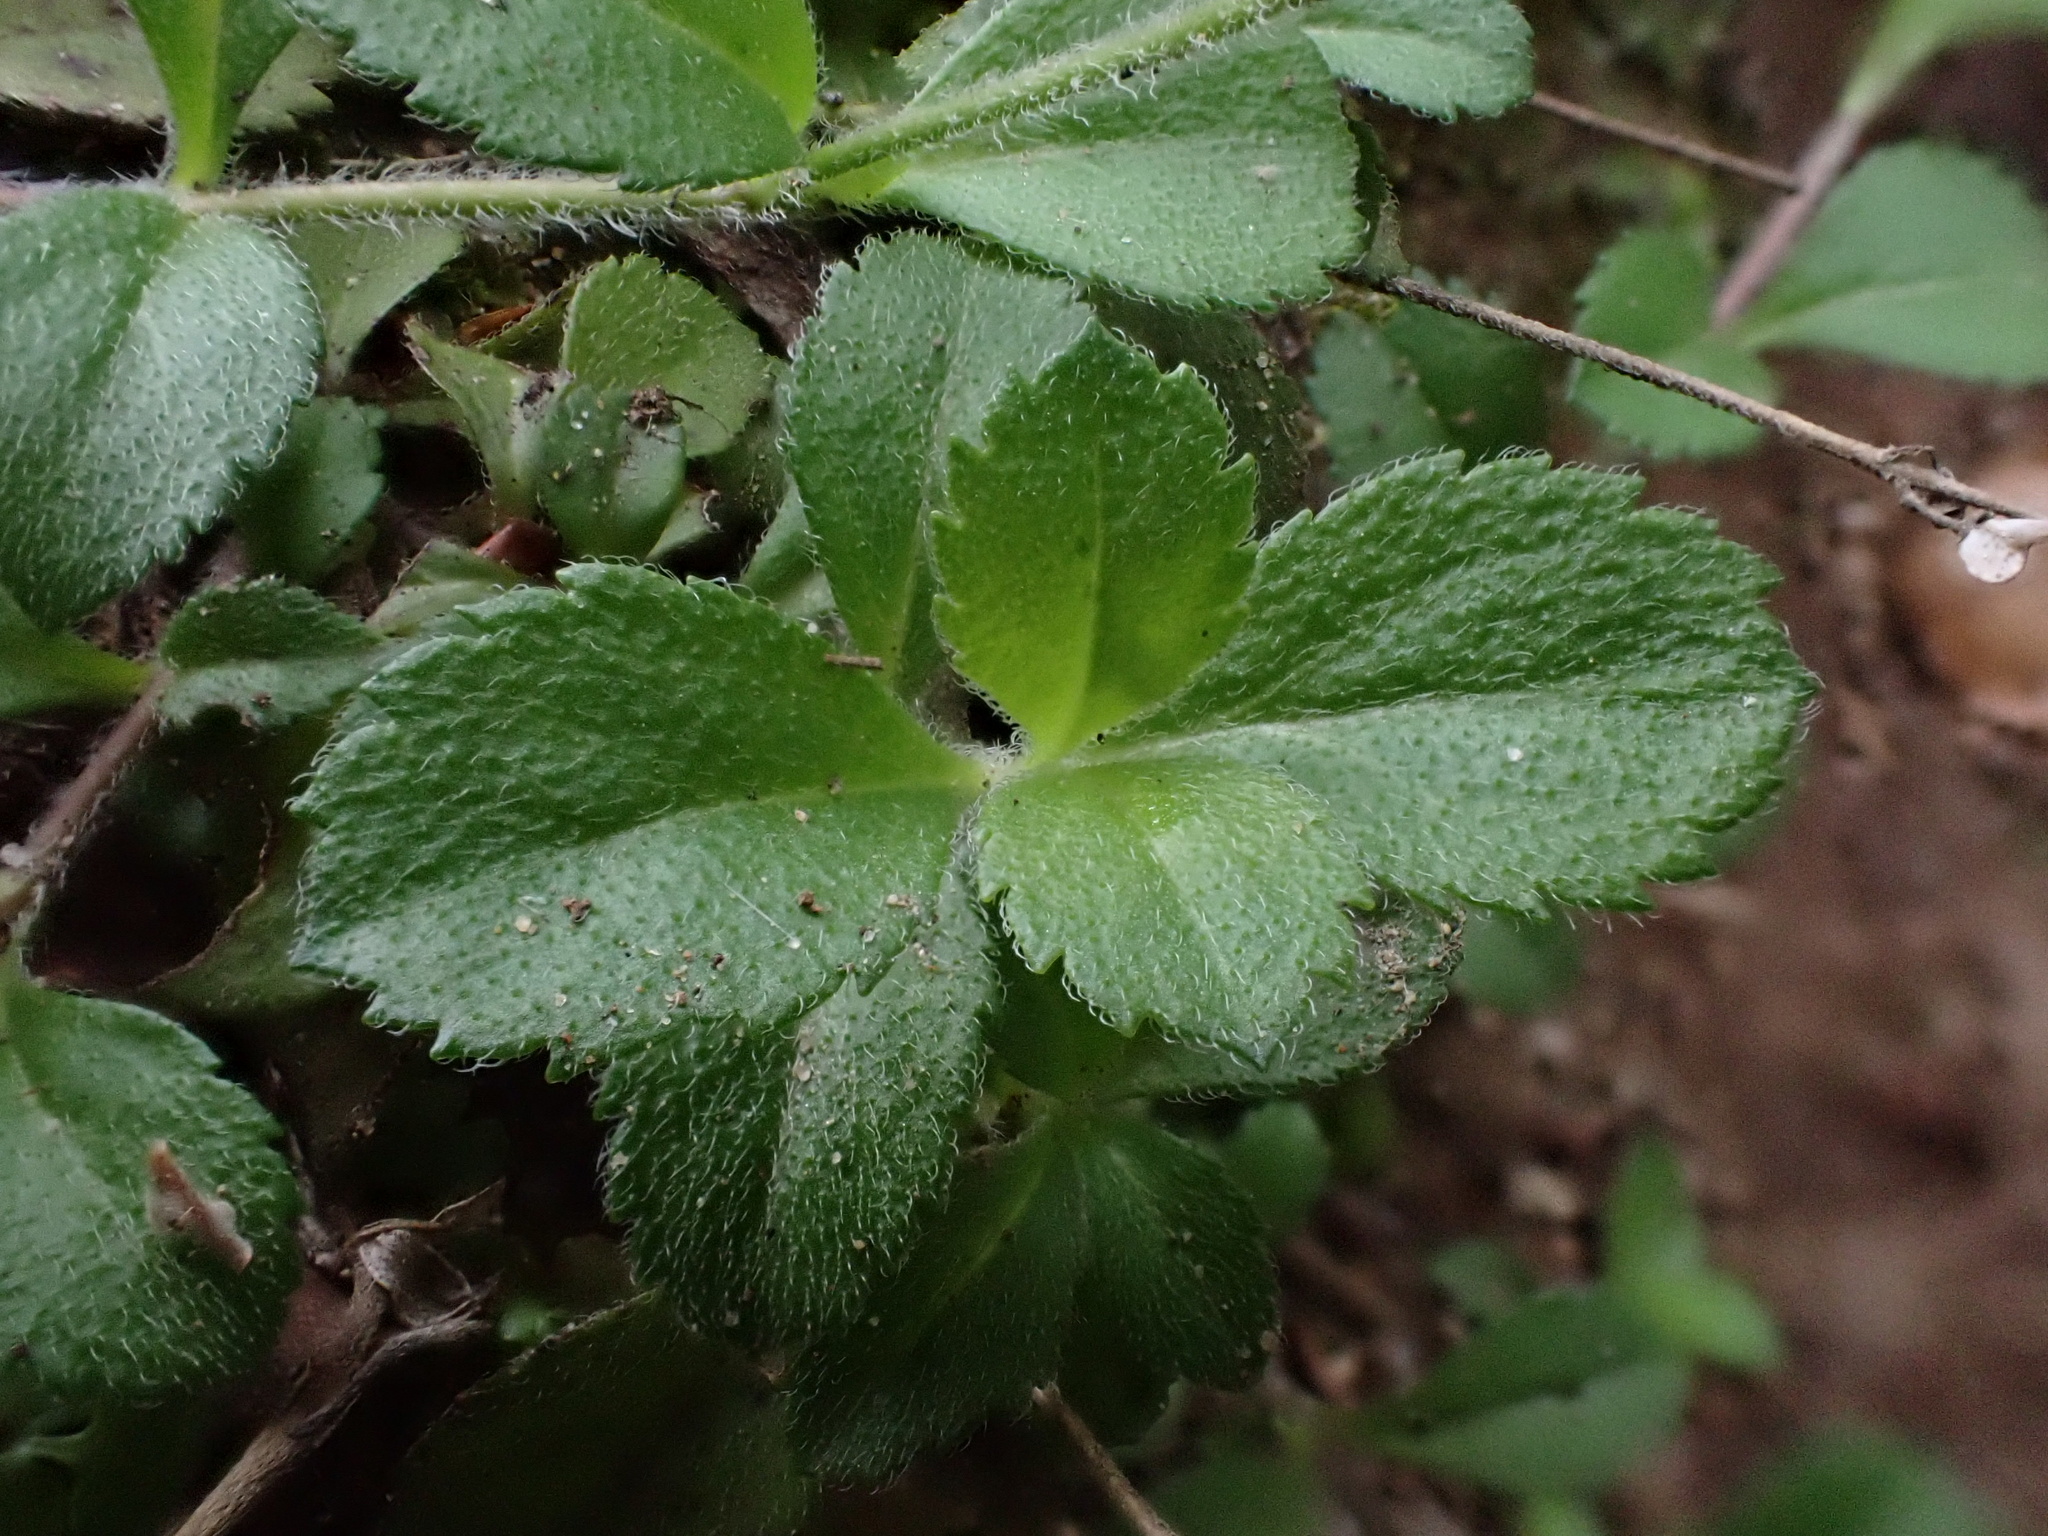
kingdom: Plantae
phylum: Tracheophyta
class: Magnoliopsida
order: Lamiales
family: Plantaginaceae
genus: Veronica
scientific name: Veronica officinalis
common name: Common speedwell
